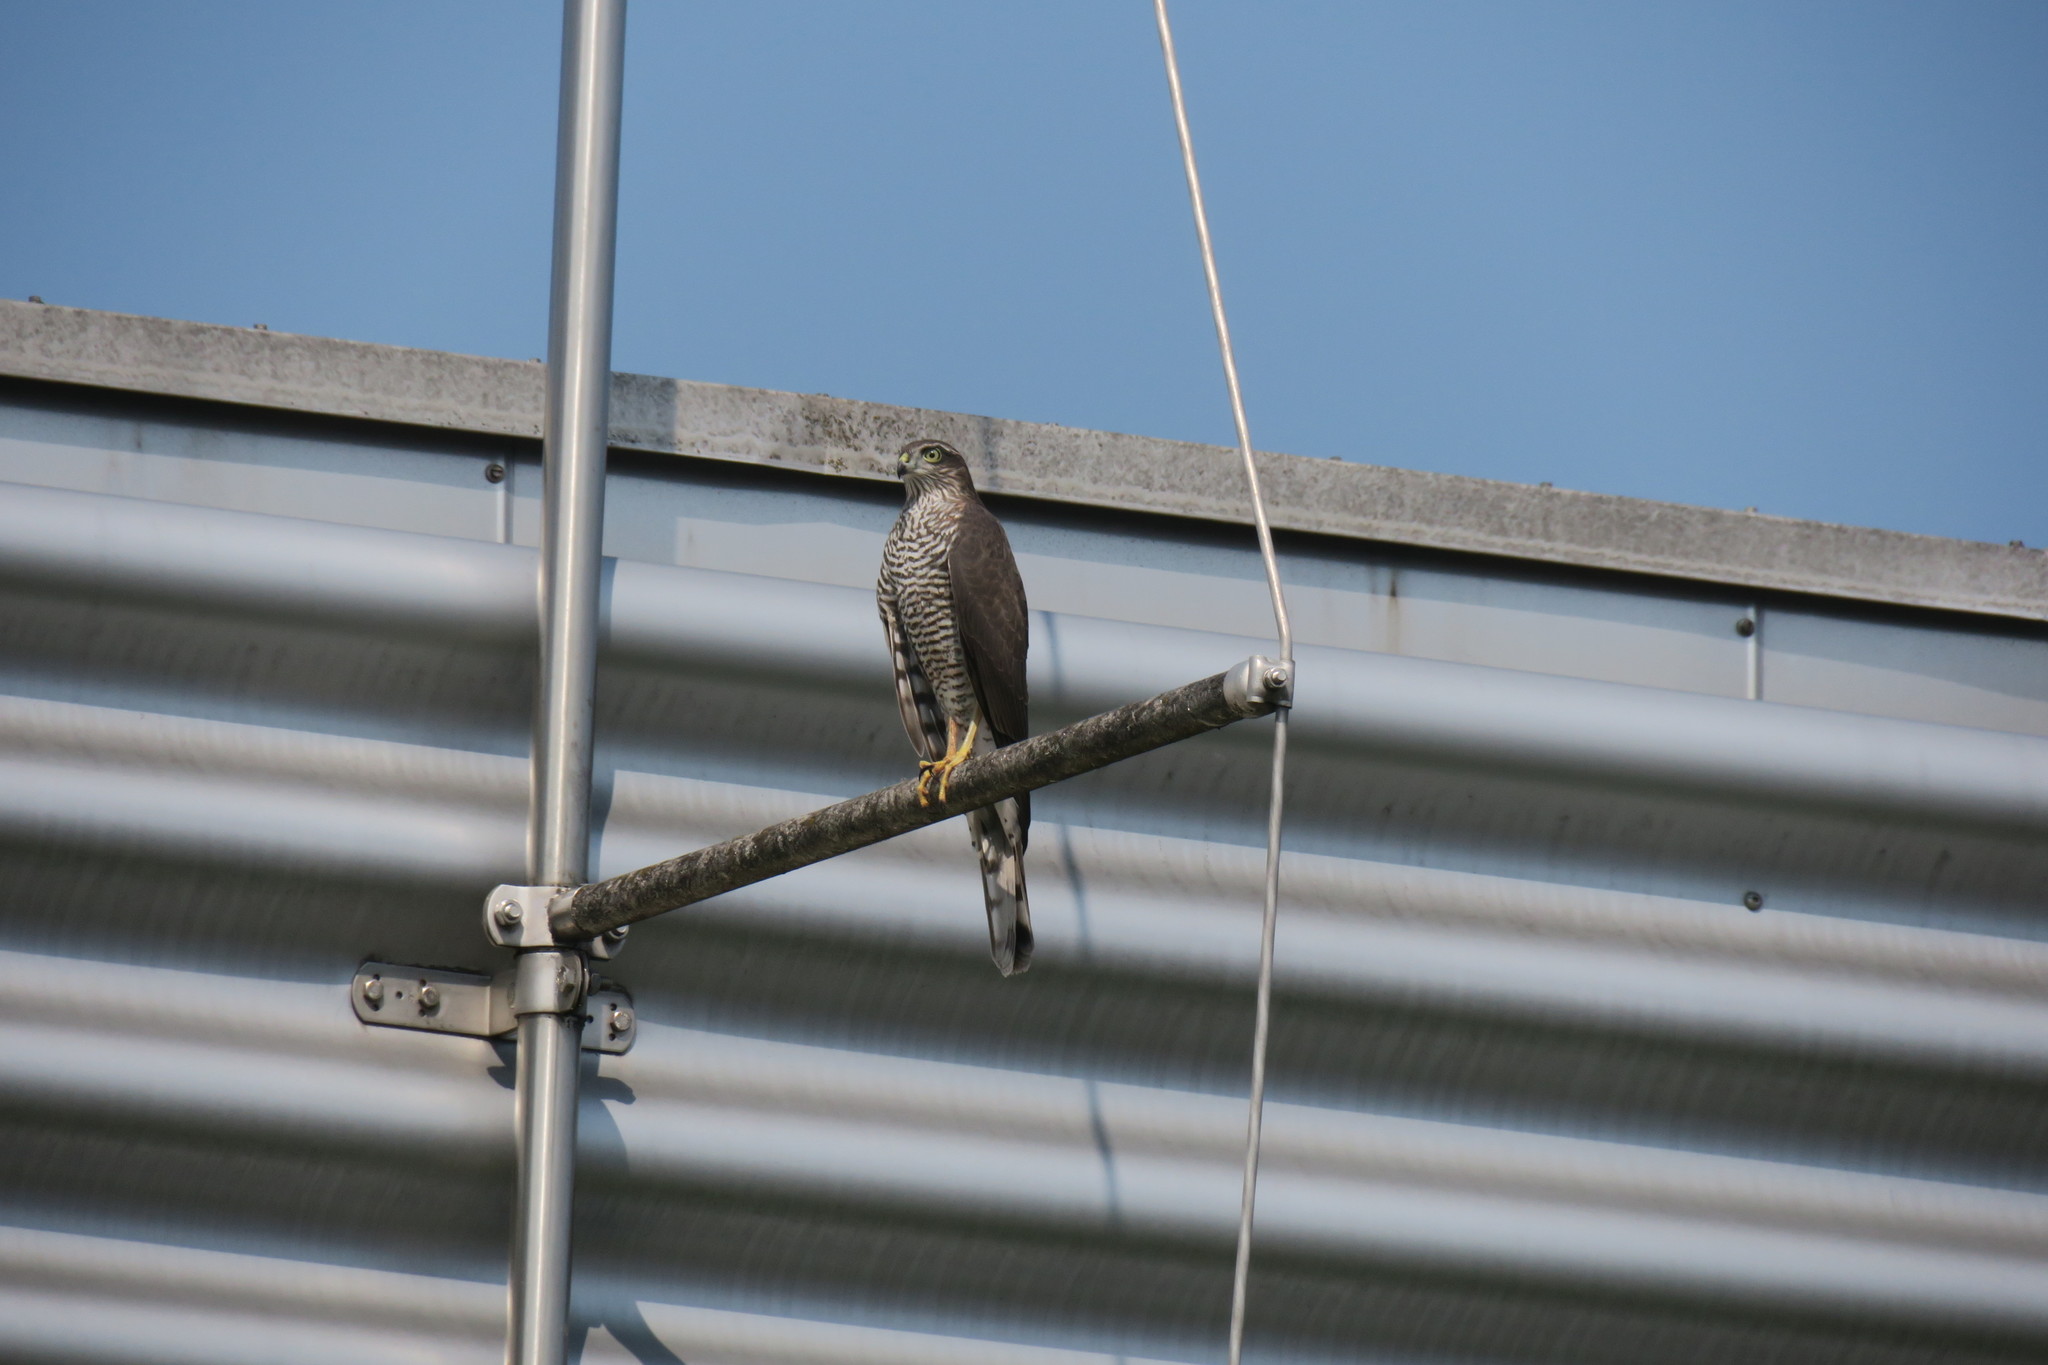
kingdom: Animalia
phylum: Chordata
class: Aves
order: Accipitriformes
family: Accipitridae
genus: Accipiter
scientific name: Accipiter nisus
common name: Eurasian sparrowhawk
